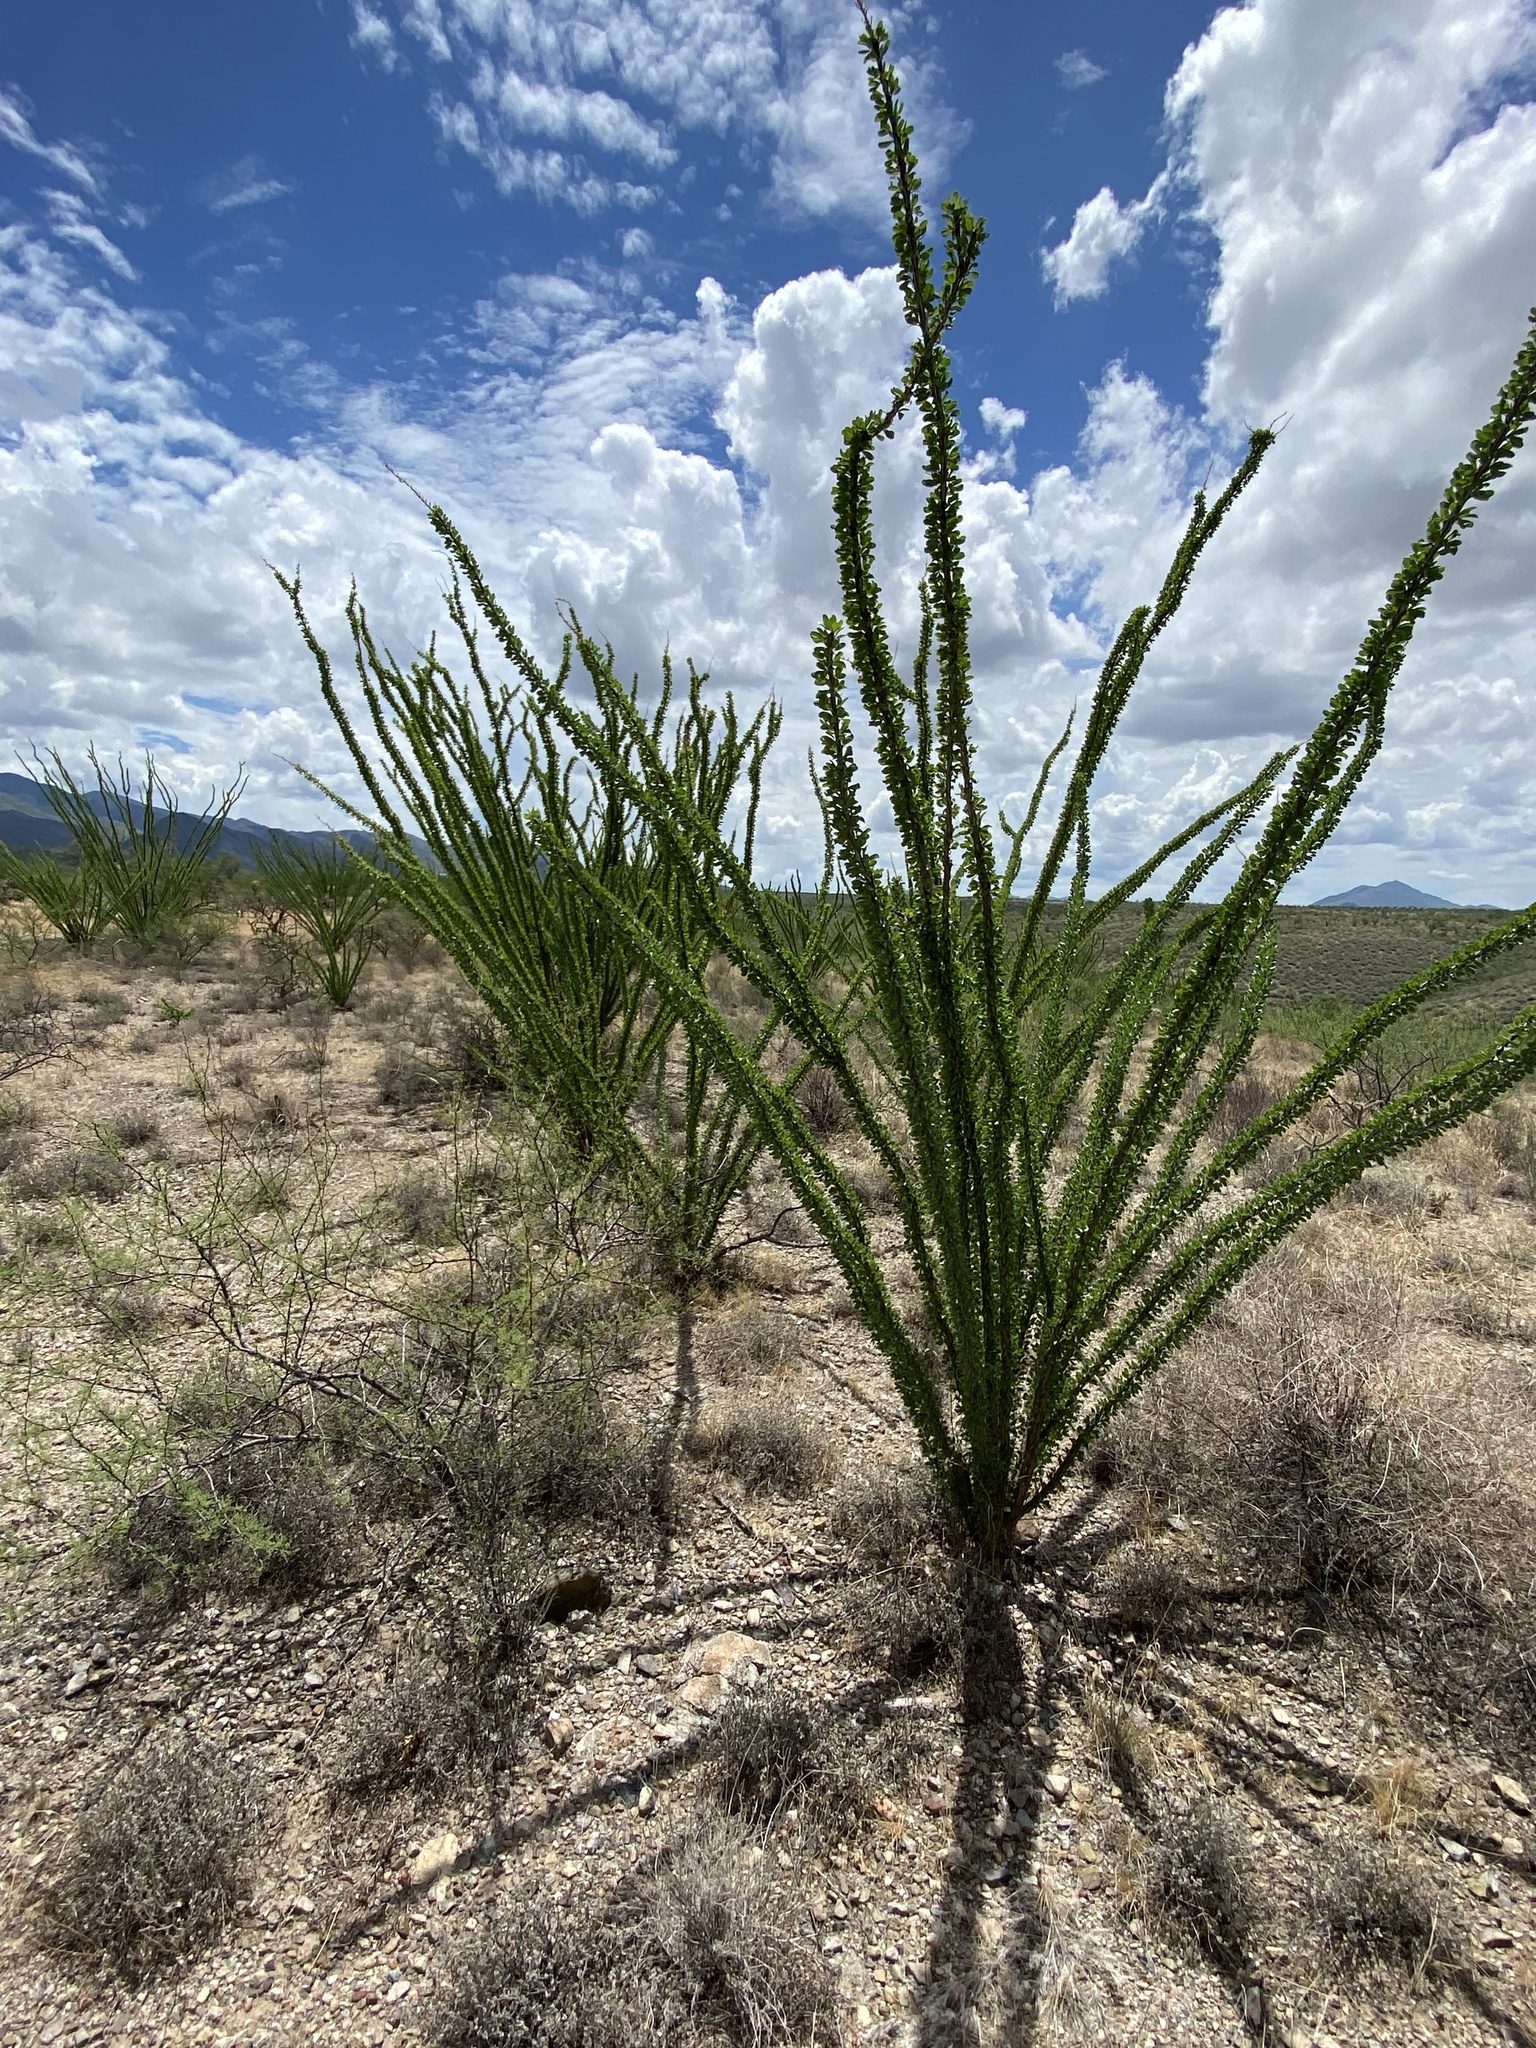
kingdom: Plantae
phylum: Tracheophyta
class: Magnoliopsida
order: Ericales
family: Fouquieriaceae
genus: Fouquieria
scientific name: Fouquieria splendens
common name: Vine-cactus
